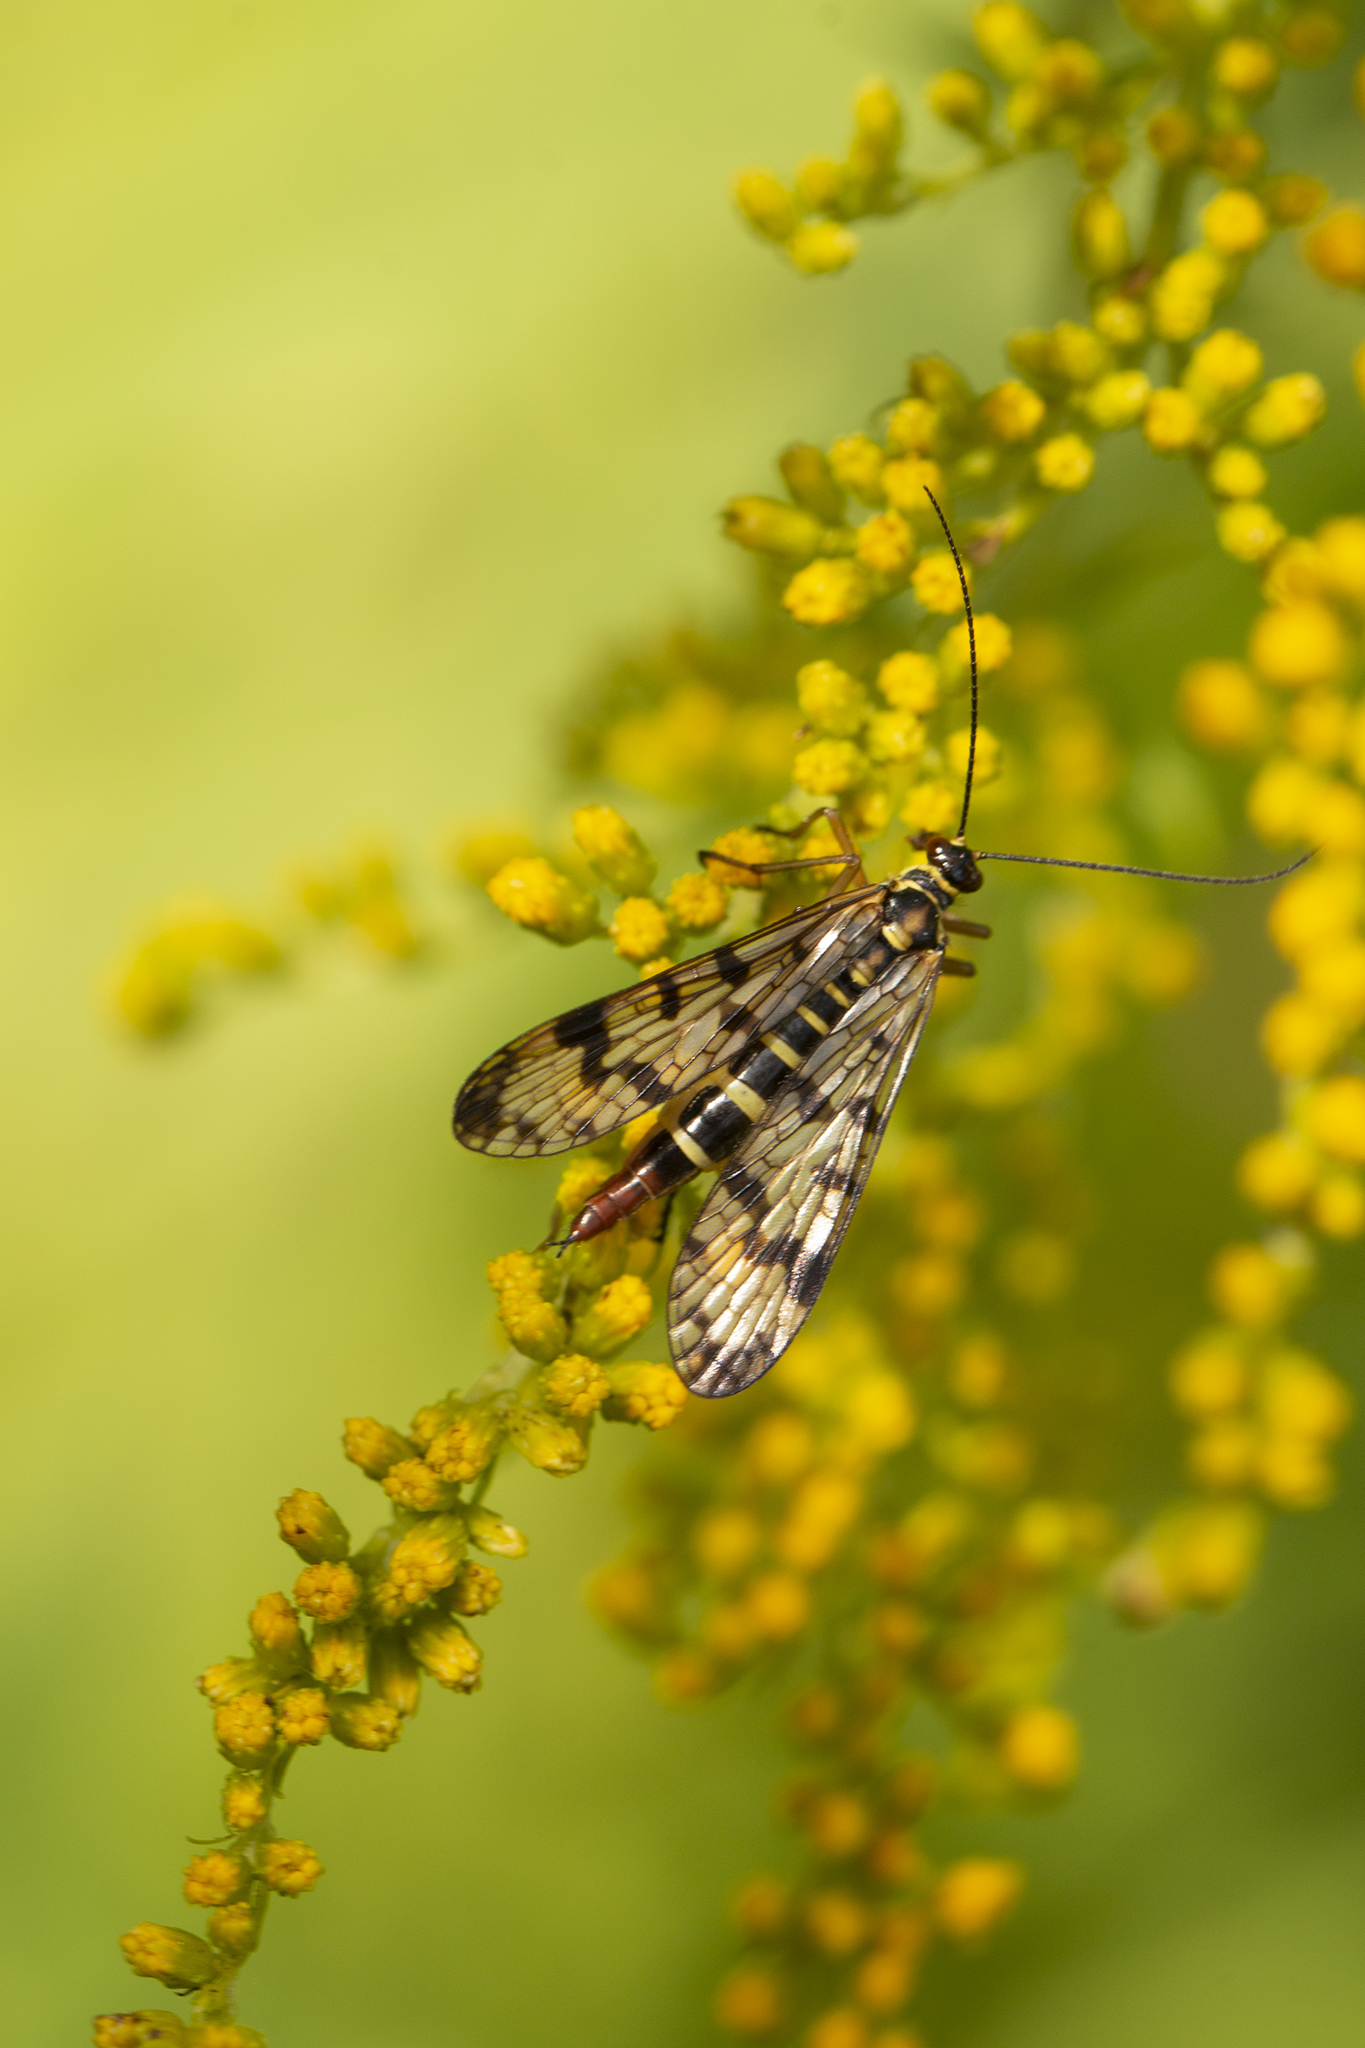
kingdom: Animalia
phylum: Arthropoda
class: Insecta
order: Mecoptera
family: Panorpidae
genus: Panorpa
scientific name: Panorpa communis
